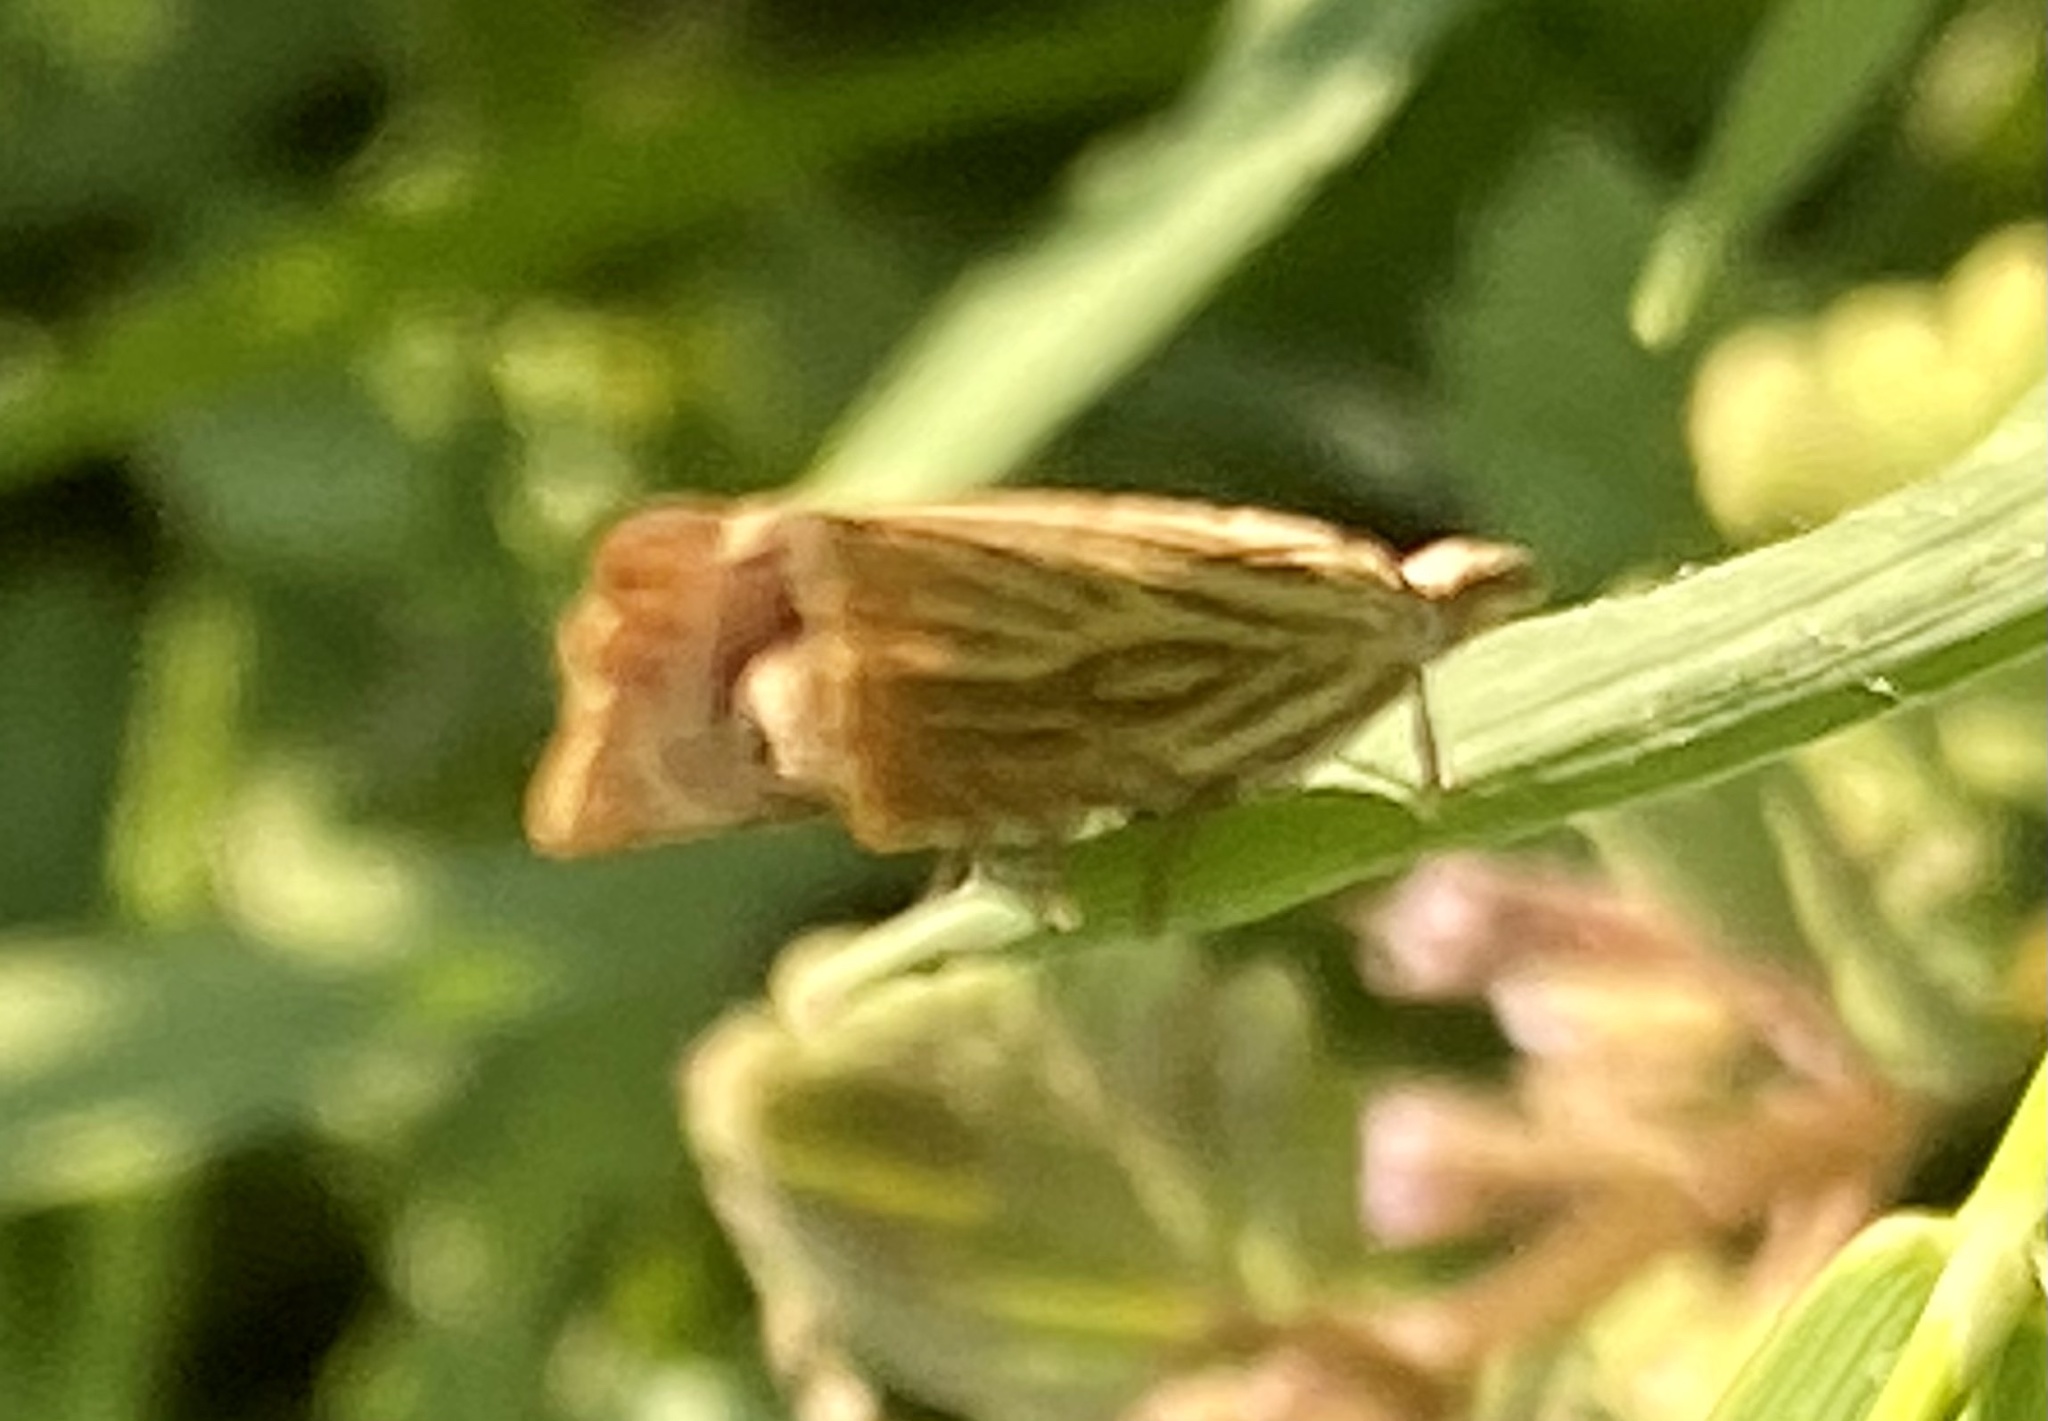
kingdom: Animalia
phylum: Arthropoda
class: Insecta
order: Lepidoptera
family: Crambidae
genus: Chrysoteuchia
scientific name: Chrysoteuchia culmella
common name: Garden grass-veneer
